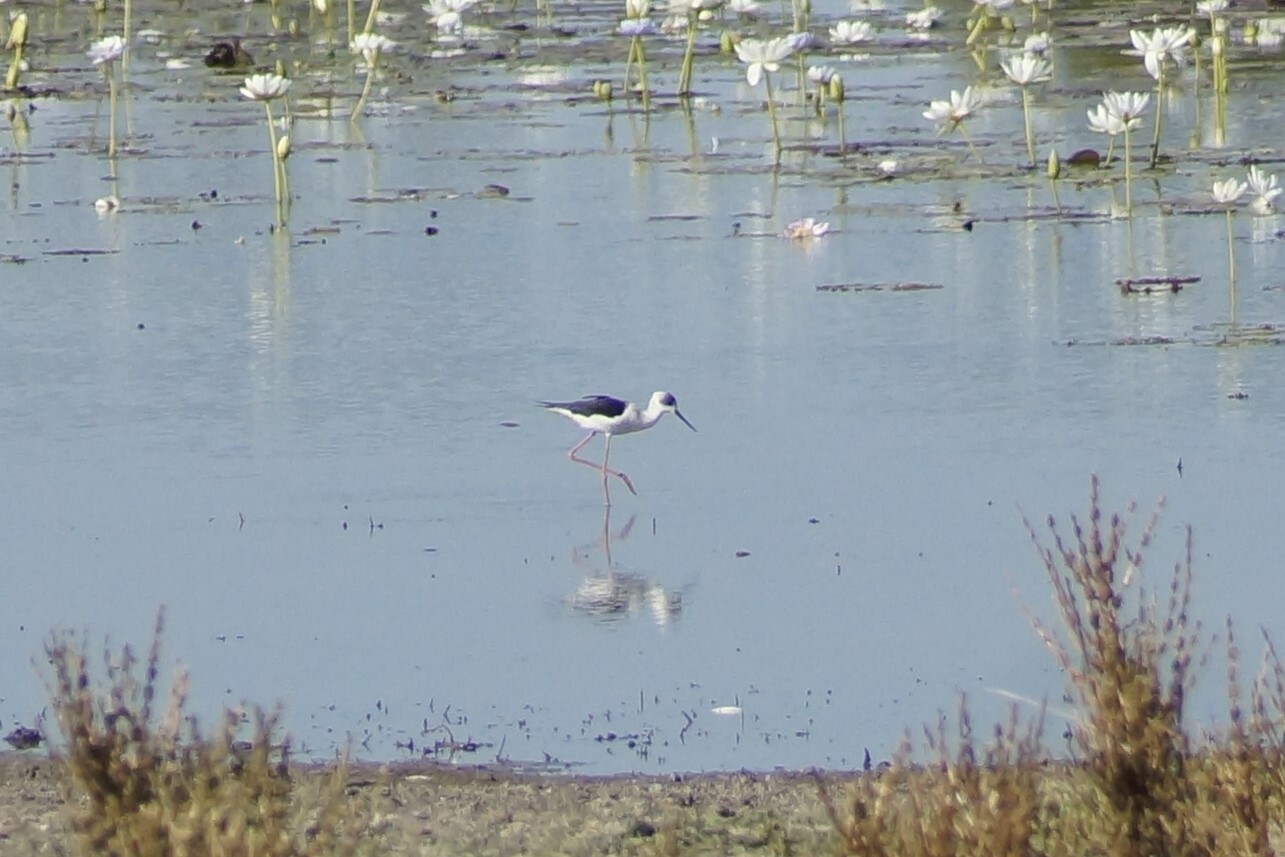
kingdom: Animalia
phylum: Chordata
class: Aves
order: Charadriiformes
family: Recurvirostridae
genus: Himantopus
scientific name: Himantopus leucocephalus
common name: White-headed stilt
